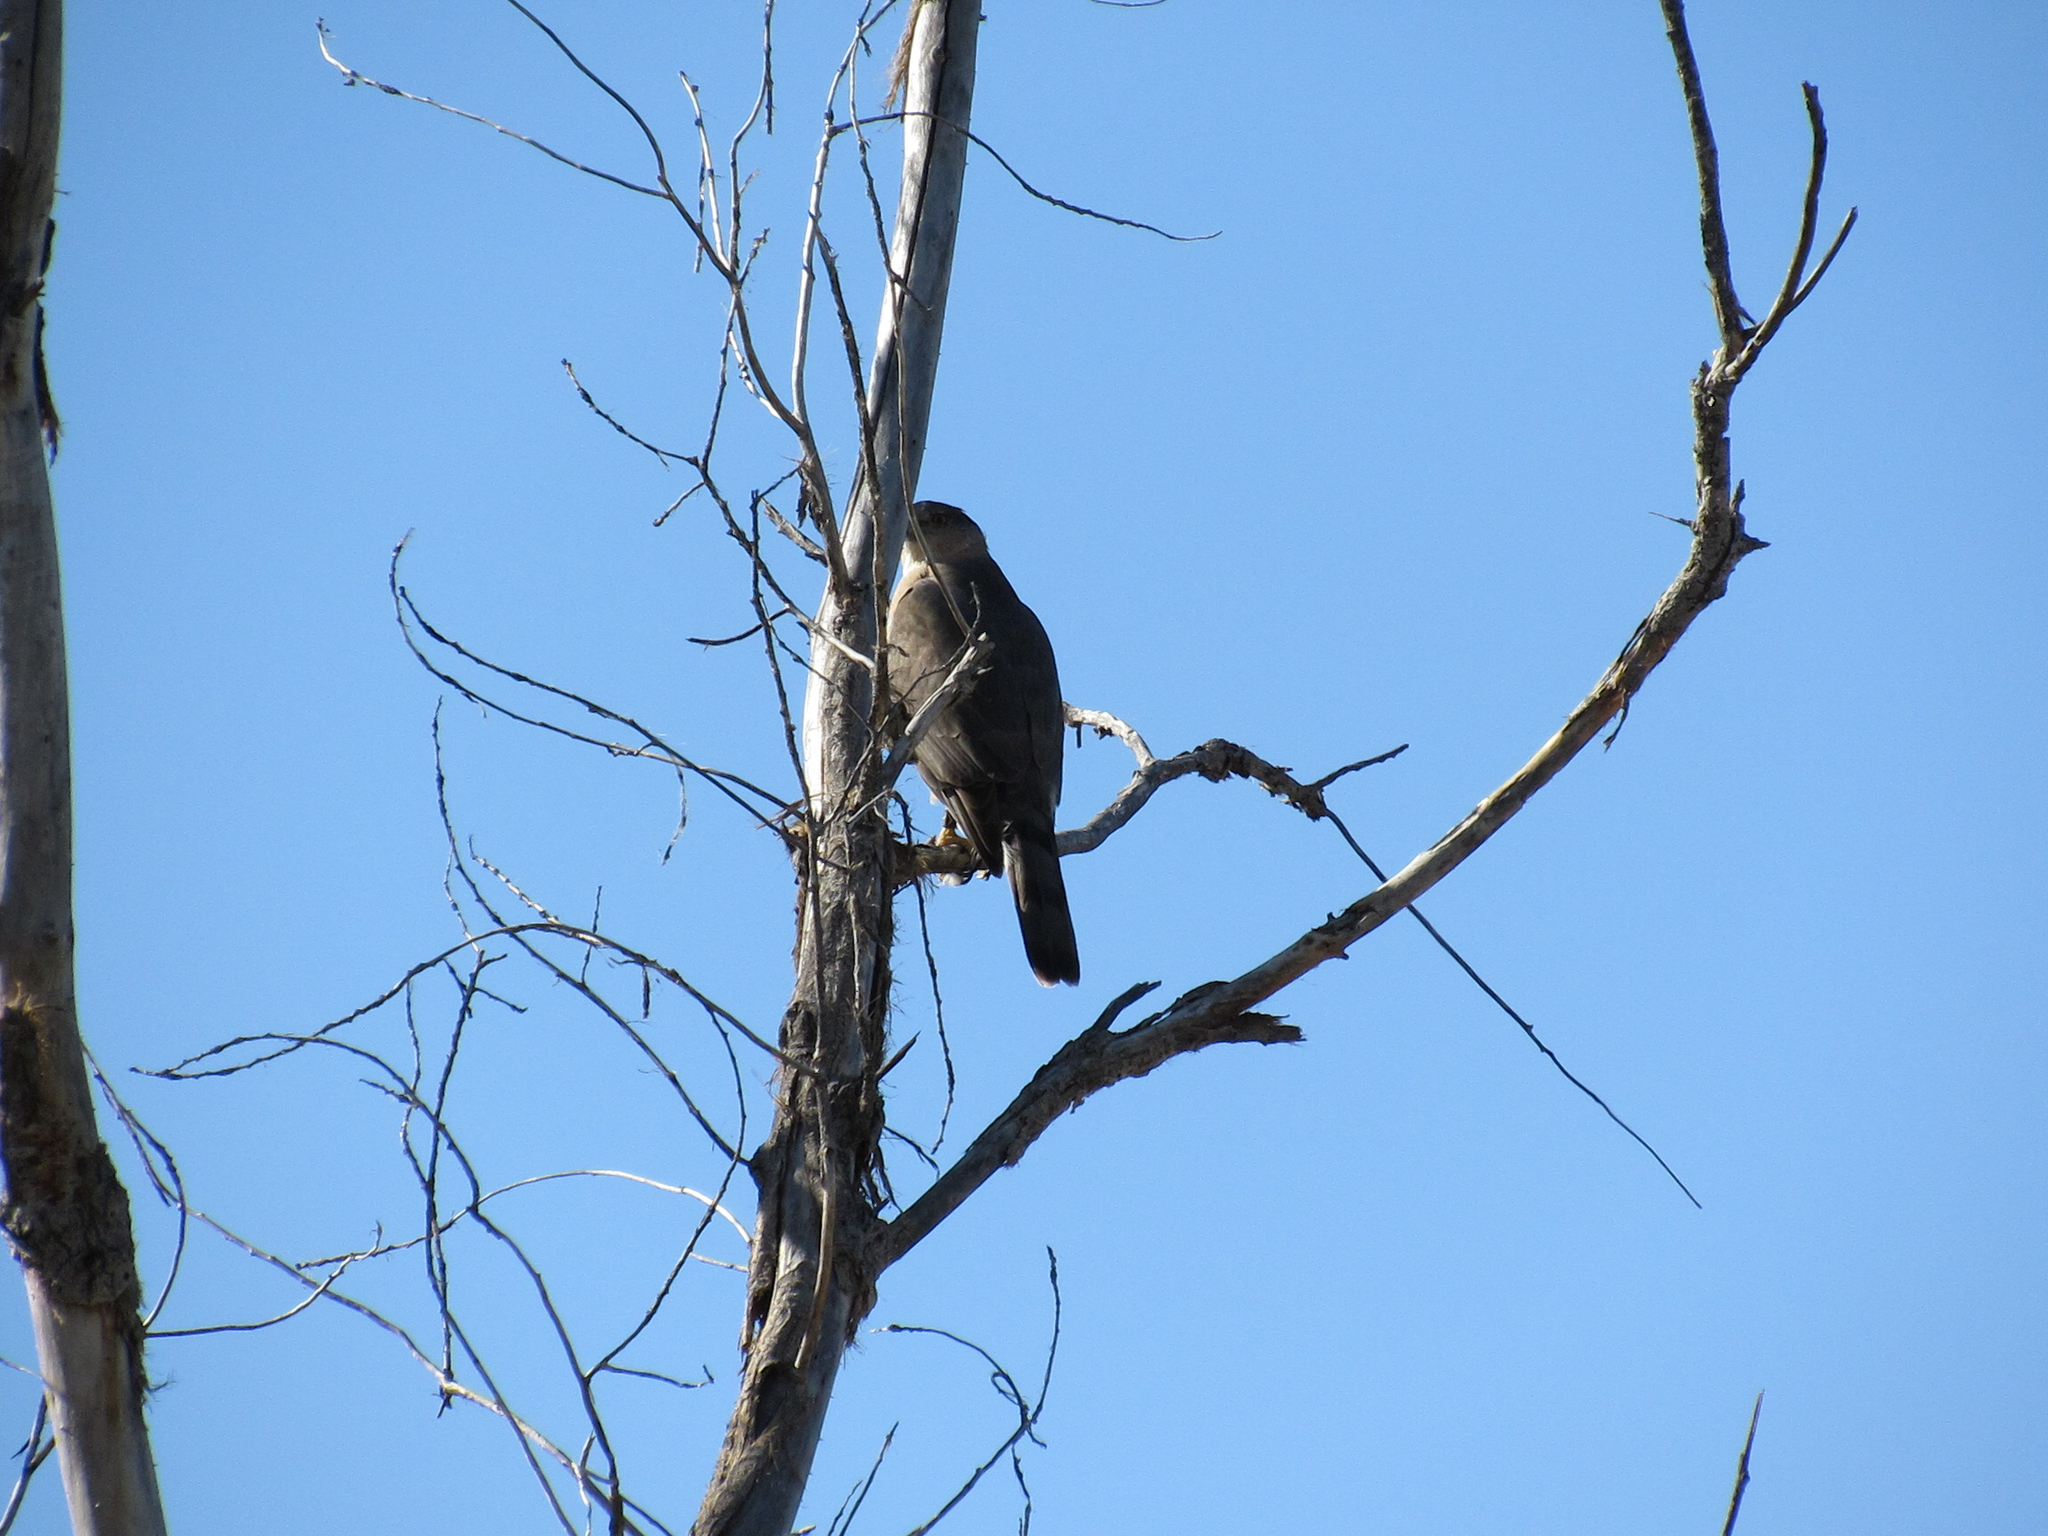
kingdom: Animalia
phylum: Chordata
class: Aves
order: Accipitriformes
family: Accipitridae
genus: Accipiter
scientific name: Accipiter cooperii
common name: Cooper's hawk
